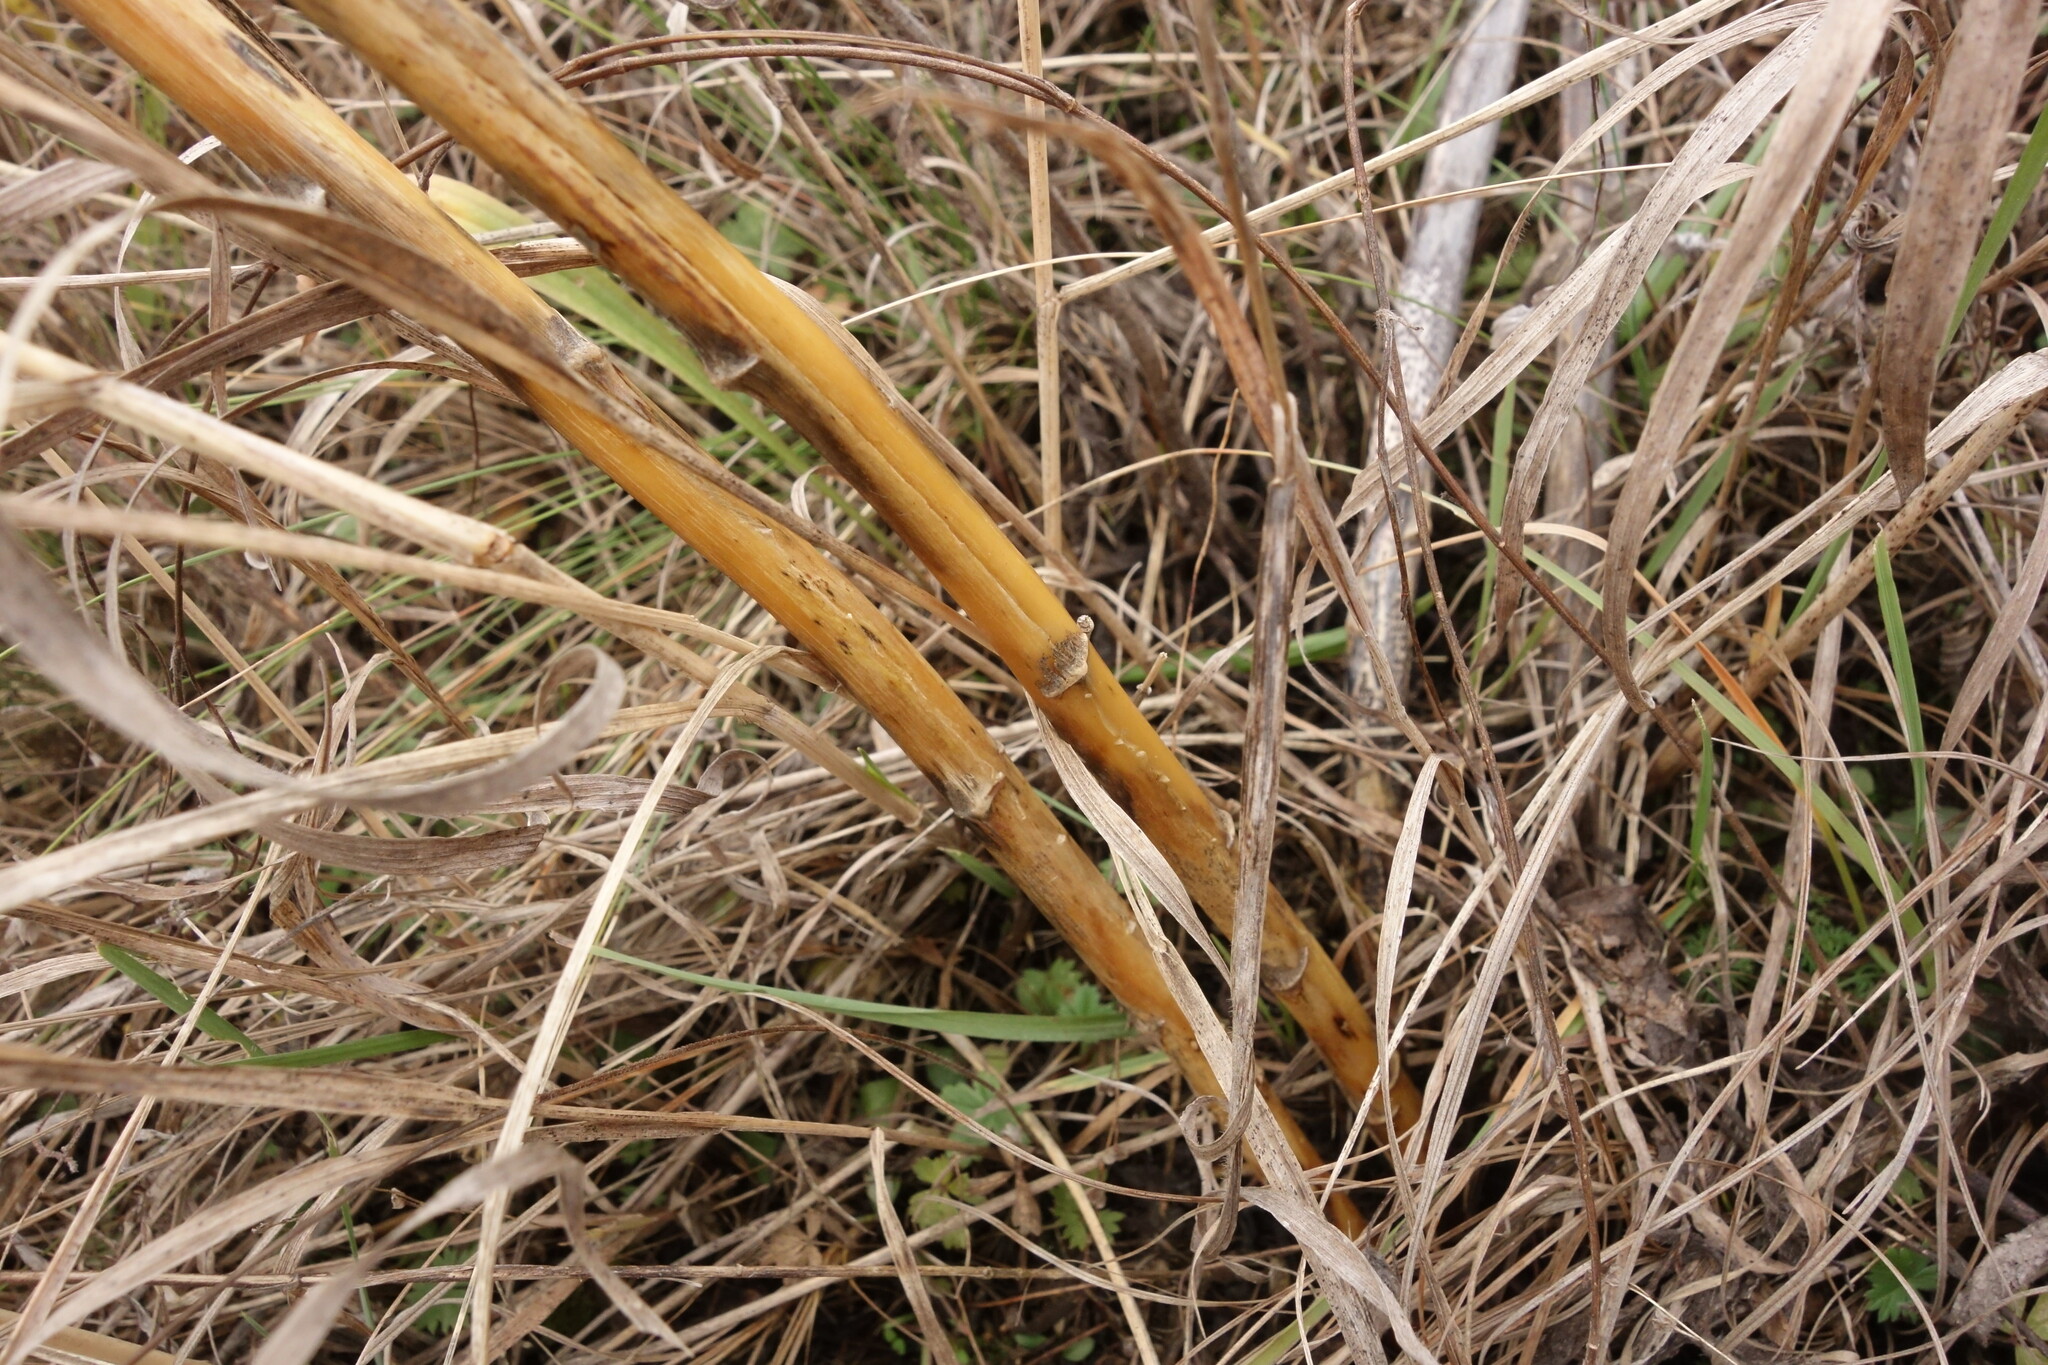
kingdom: Plantae
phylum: Tracheophyta
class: Liliopsida
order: Asparagales
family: Asparagaceae
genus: Asparagus
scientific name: Asparagus officinalis
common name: Garden asparagus
